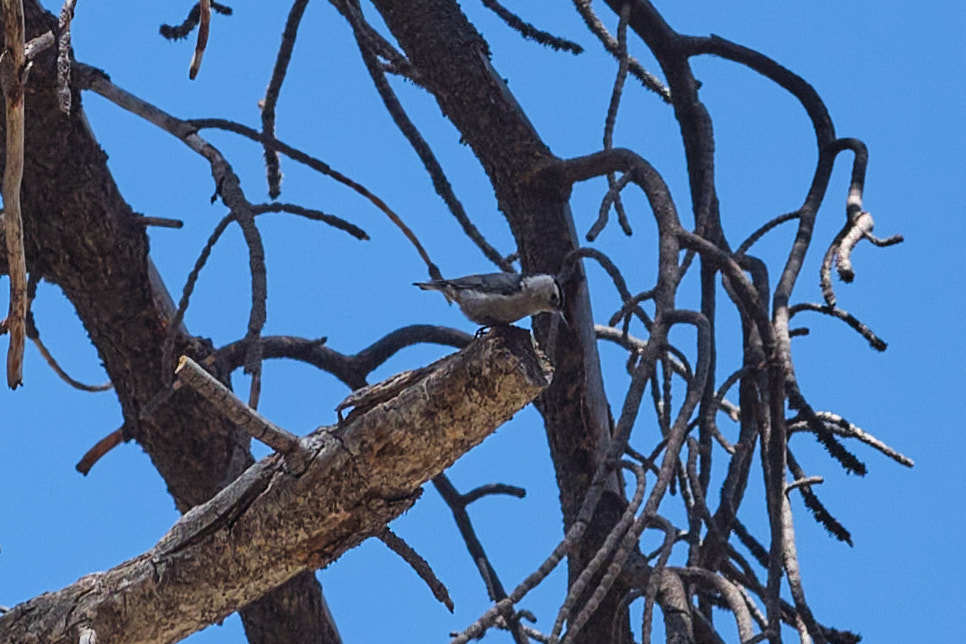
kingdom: Animalia
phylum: Chordata
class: Aves
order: Passeriformes
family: Sittidae
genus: Sitta
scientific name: Sitta carolinensis
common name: White-breasted nuthatch
